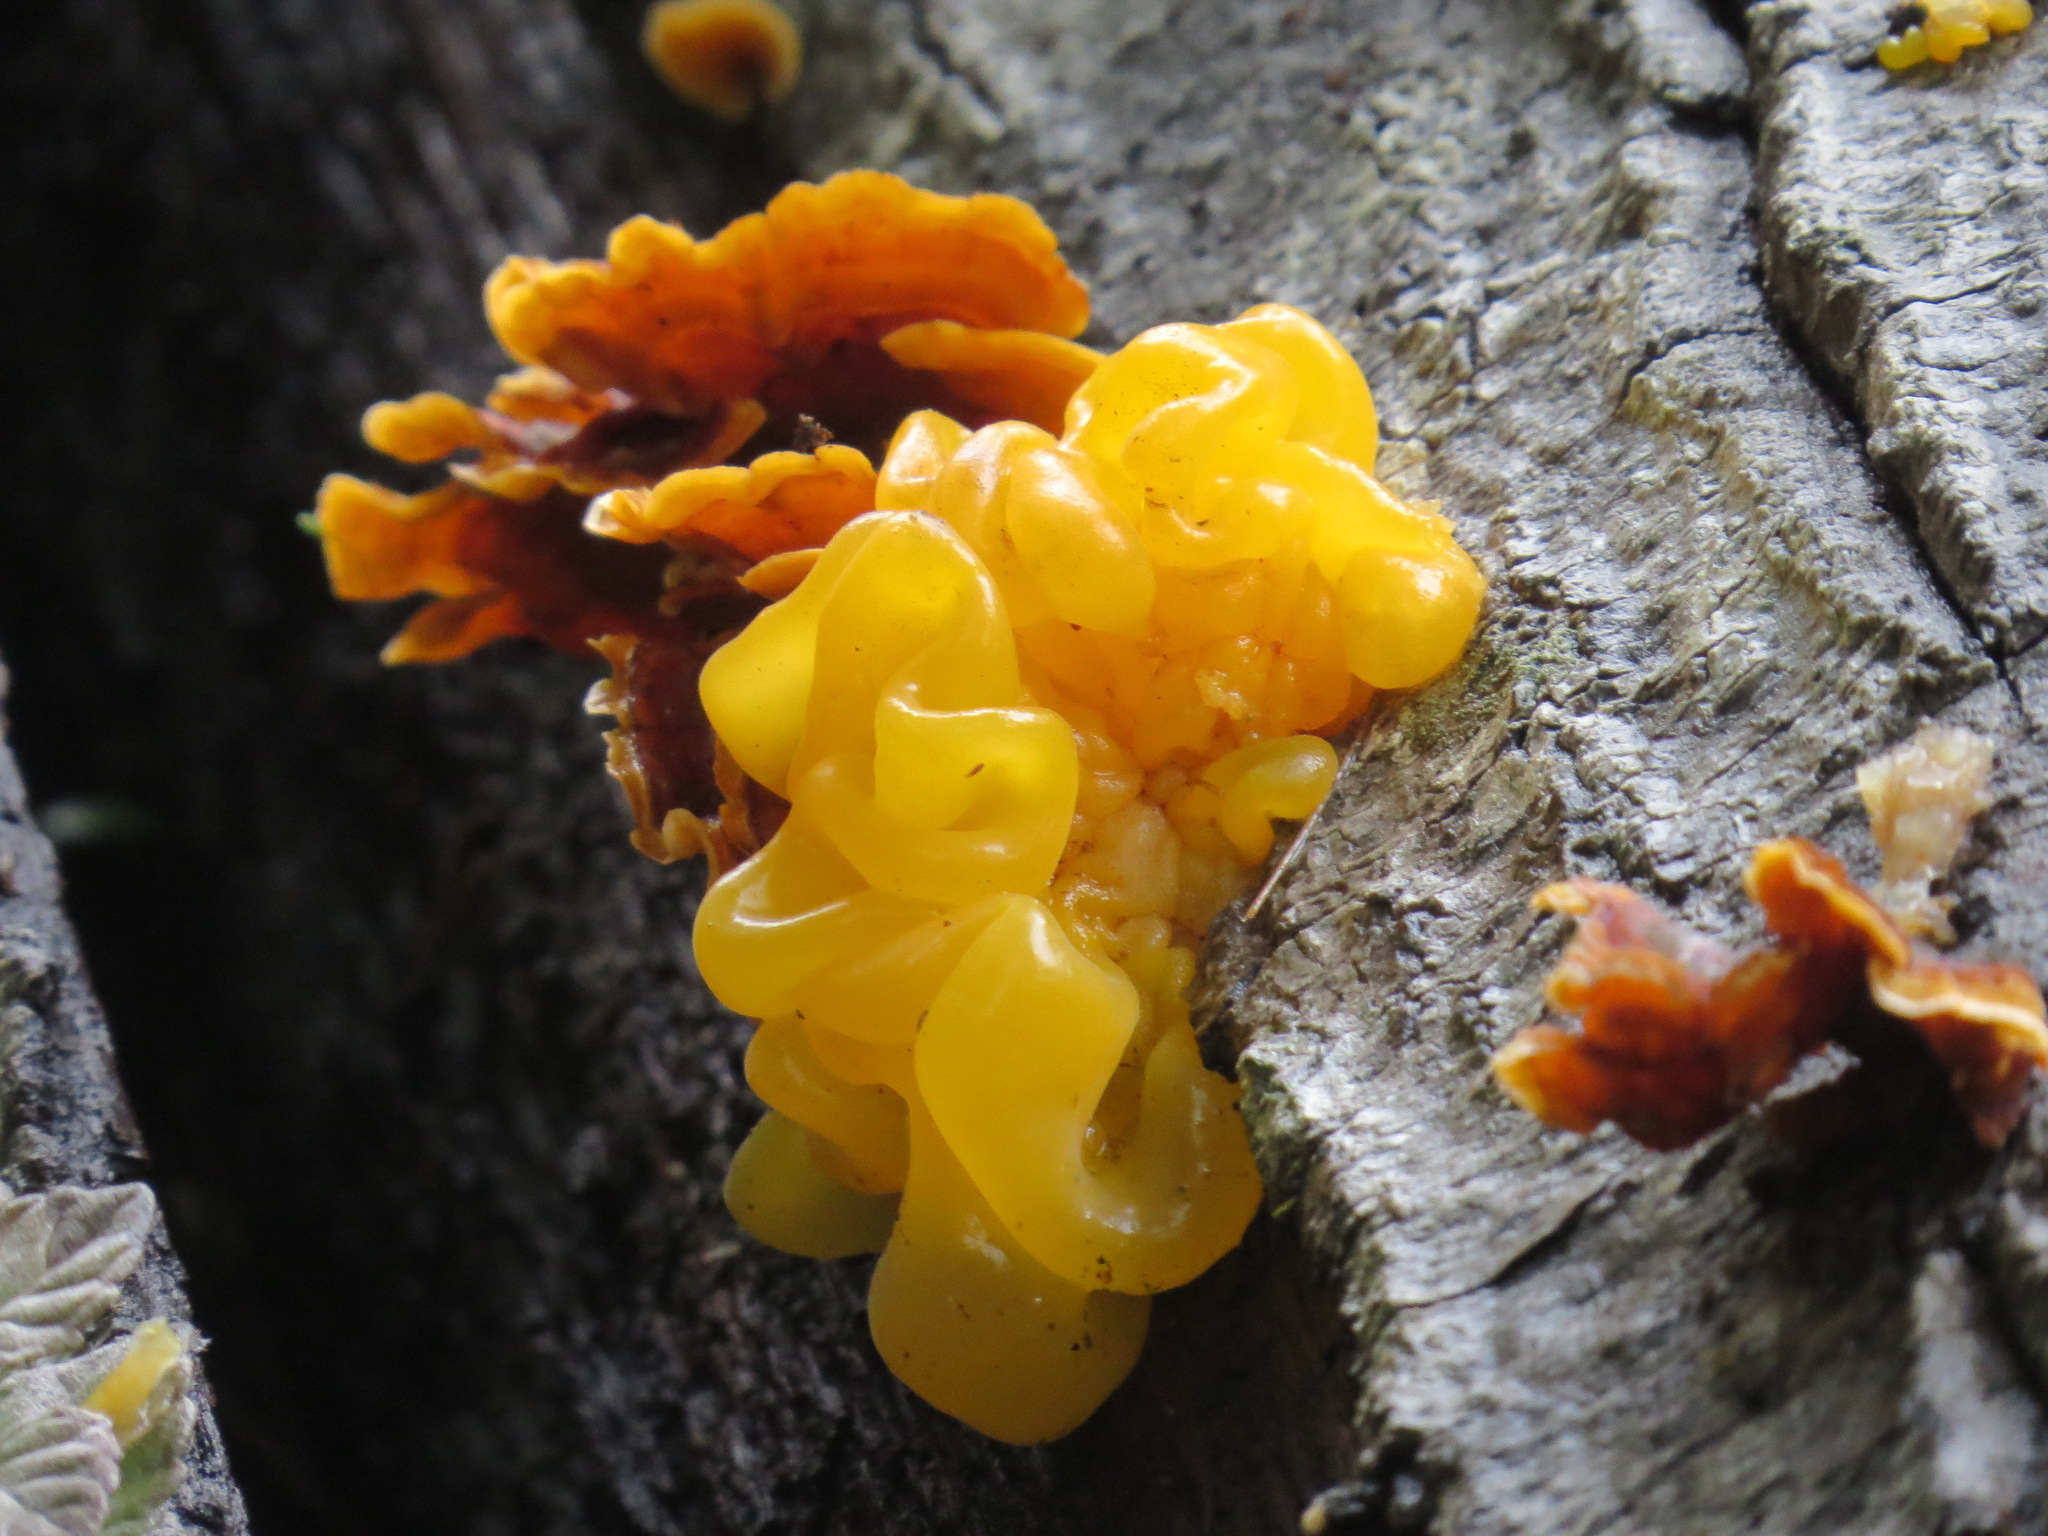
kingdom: Fungi
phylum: Basidiomycota
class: Tremellomycetes
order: Tremellales
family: Naemateliaceae
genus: Naematelia
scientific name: Naematelia aurantia
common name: Golden ear
